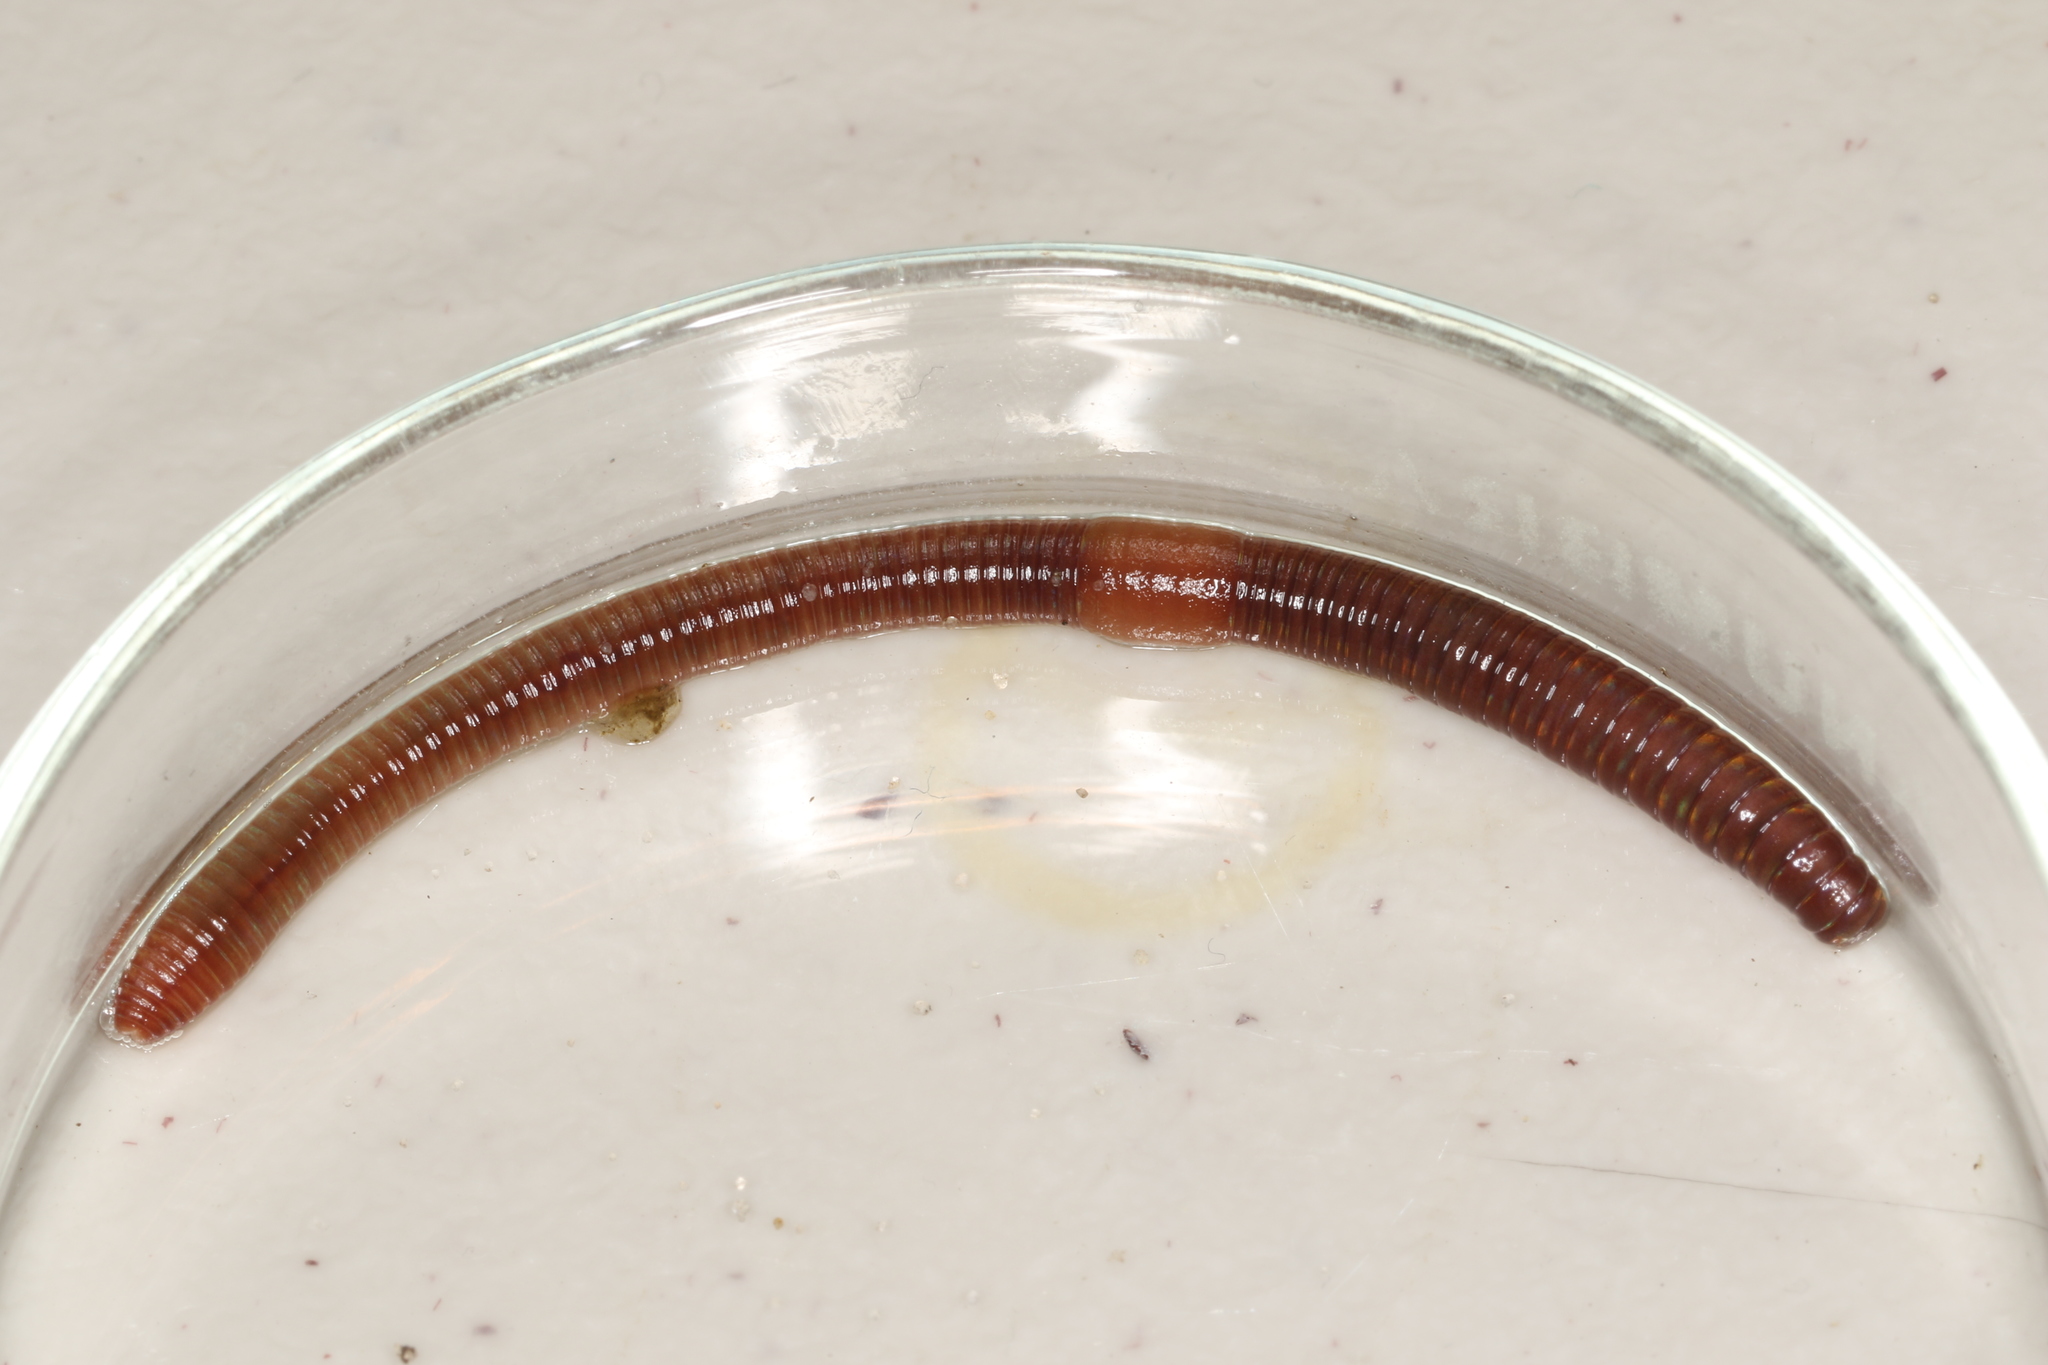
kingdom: Animalia
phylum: Annelida
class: Clitellata
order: Crassiclitellata
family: Lumbricidae
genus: Lumbricus
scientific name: Lumbricus rubellus
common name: Red worm
